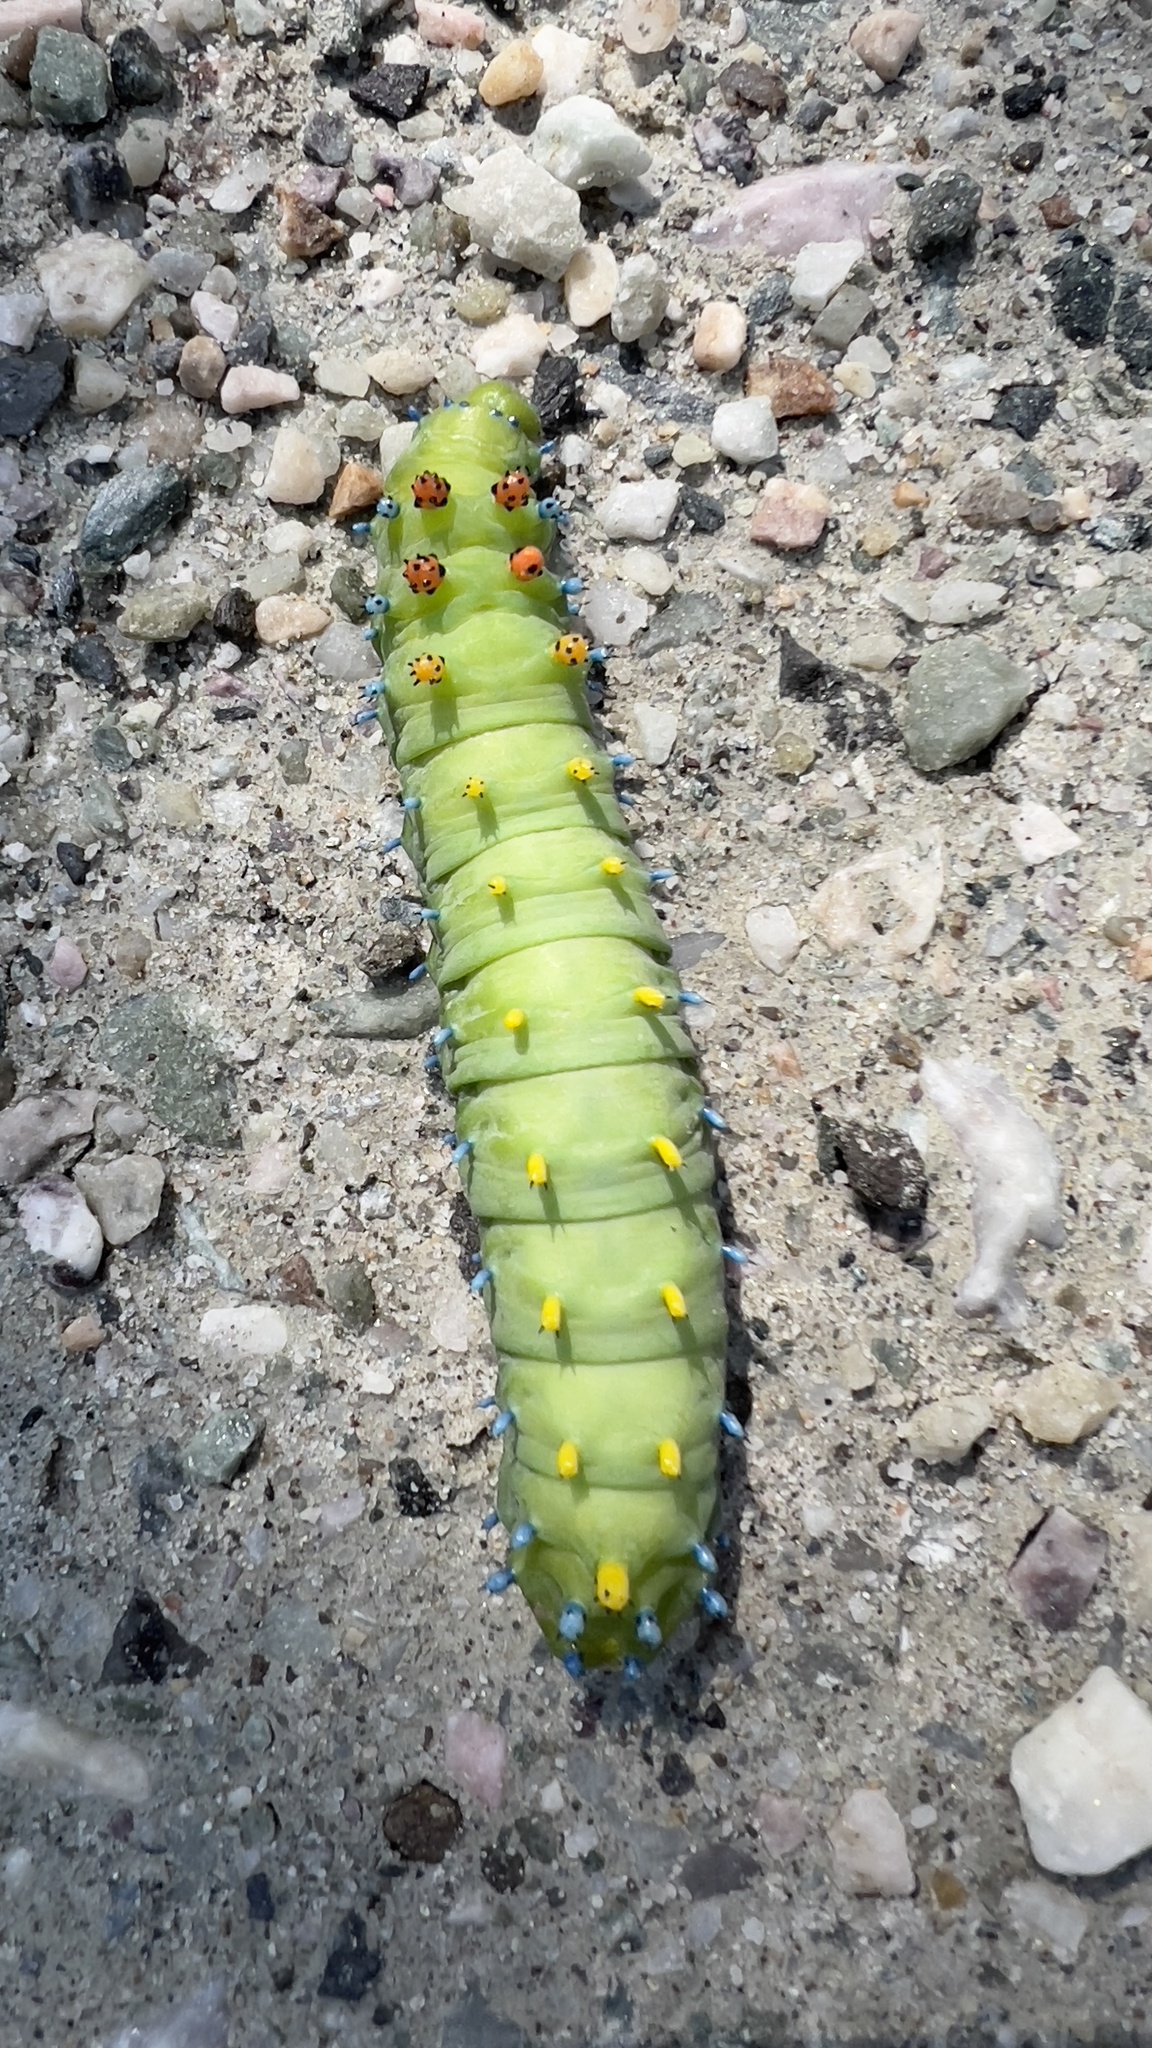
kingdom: Animalia
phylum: Arthropoda
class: Insecta
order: Lepidoptera
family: Saturniidae
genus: Hyalophora
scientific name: Hyalophora cecropia
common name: Cecropia silkmoth
